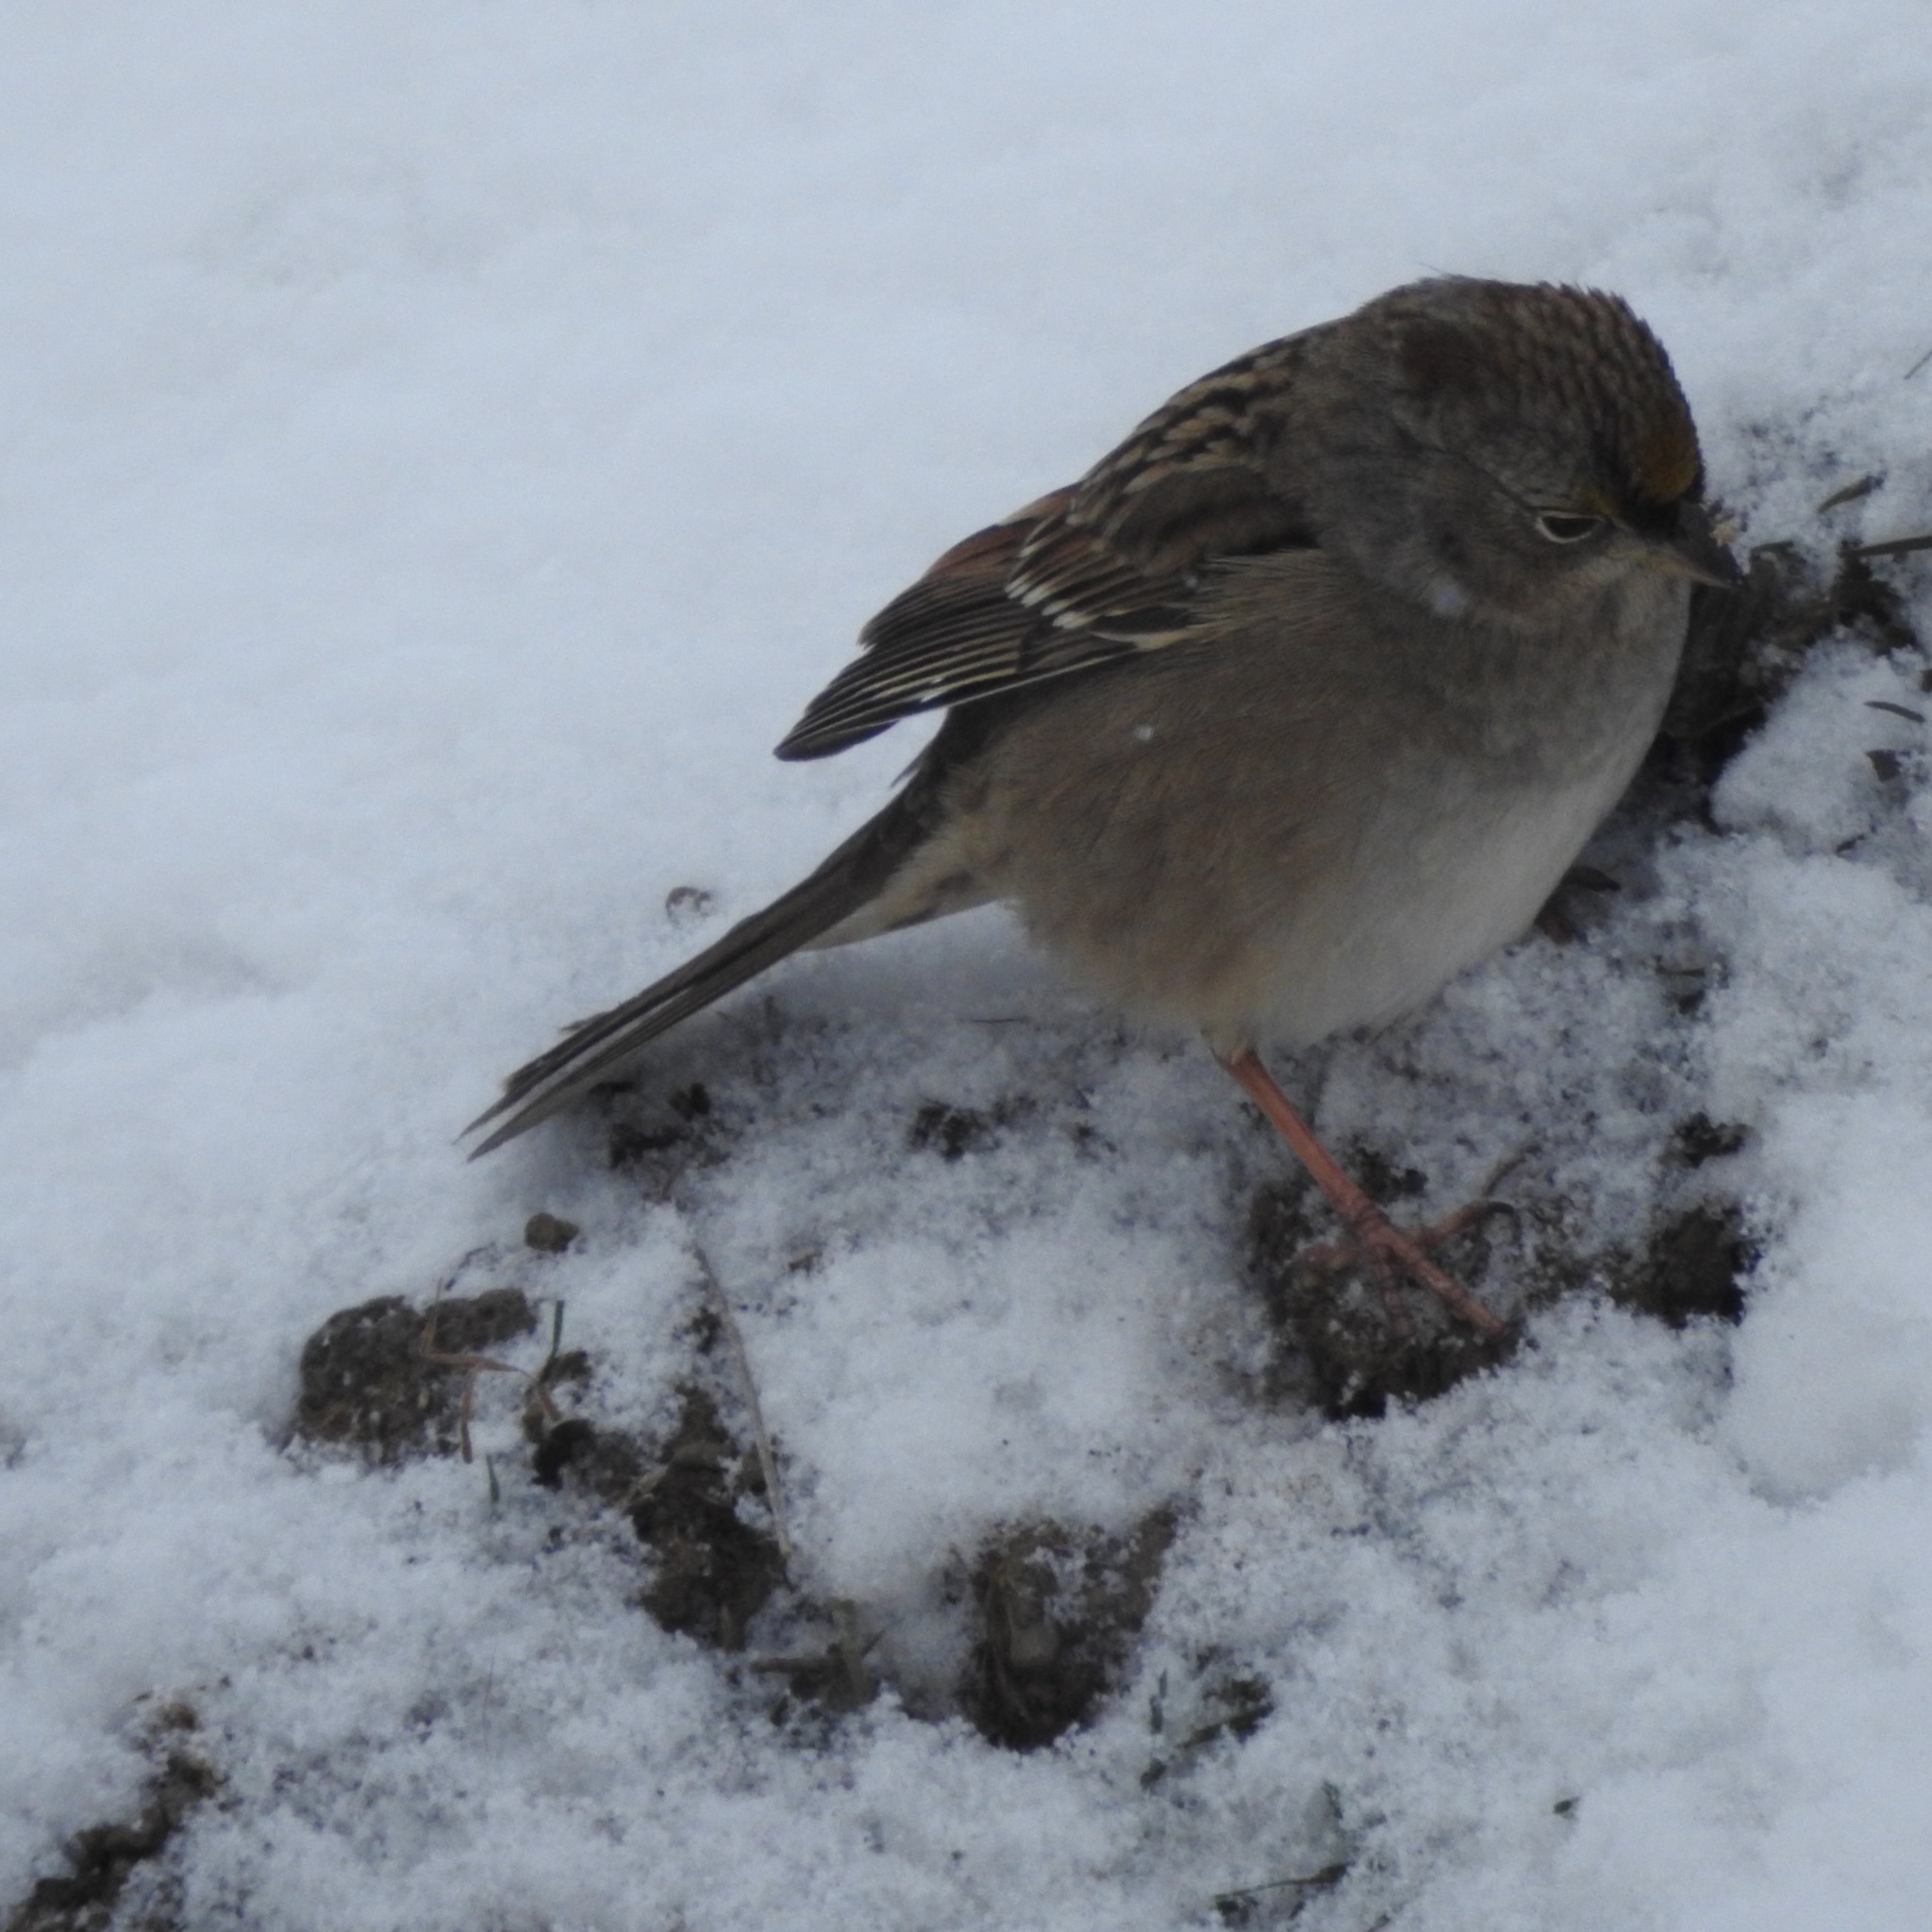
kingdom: Animalia
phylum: Chordata
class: Aves
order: Passeriformes
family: Passerellidae
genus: Zonotrichia
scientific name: Zonotrichia atricapilla
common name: Golden-crowned sparrow
